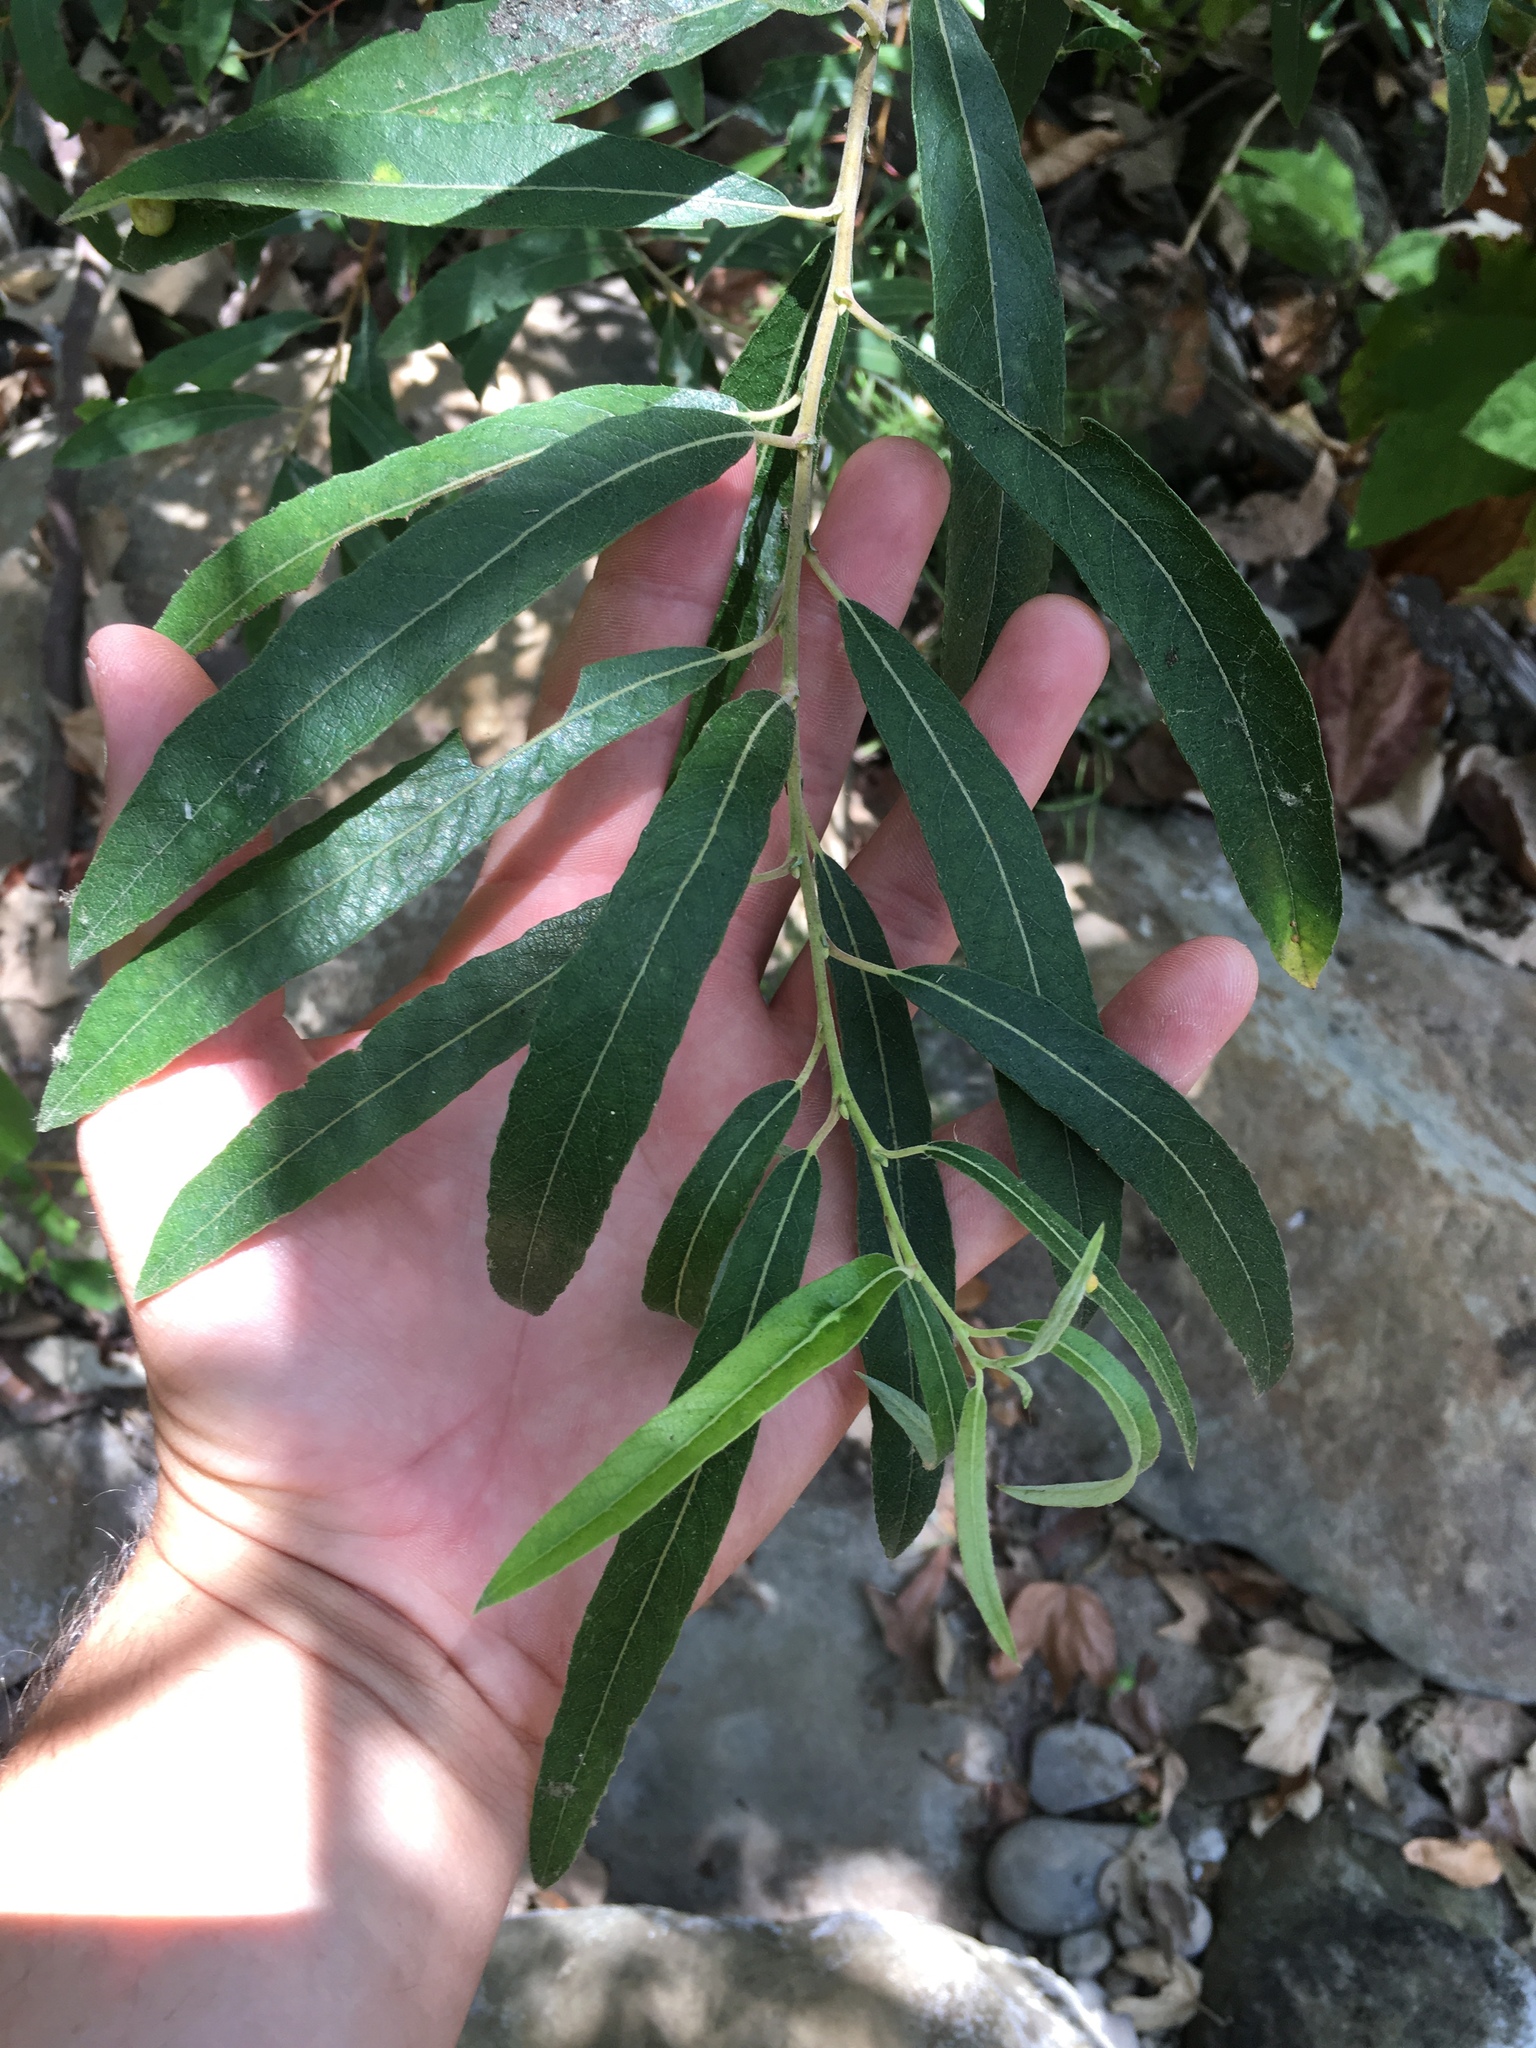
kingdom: Plantae
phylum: Tracheophyta
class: Magnoliopsida
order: Malpighiales
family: Salicaceae
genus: Salix
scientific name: Salix lasiolepis
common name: Arroyo willow
